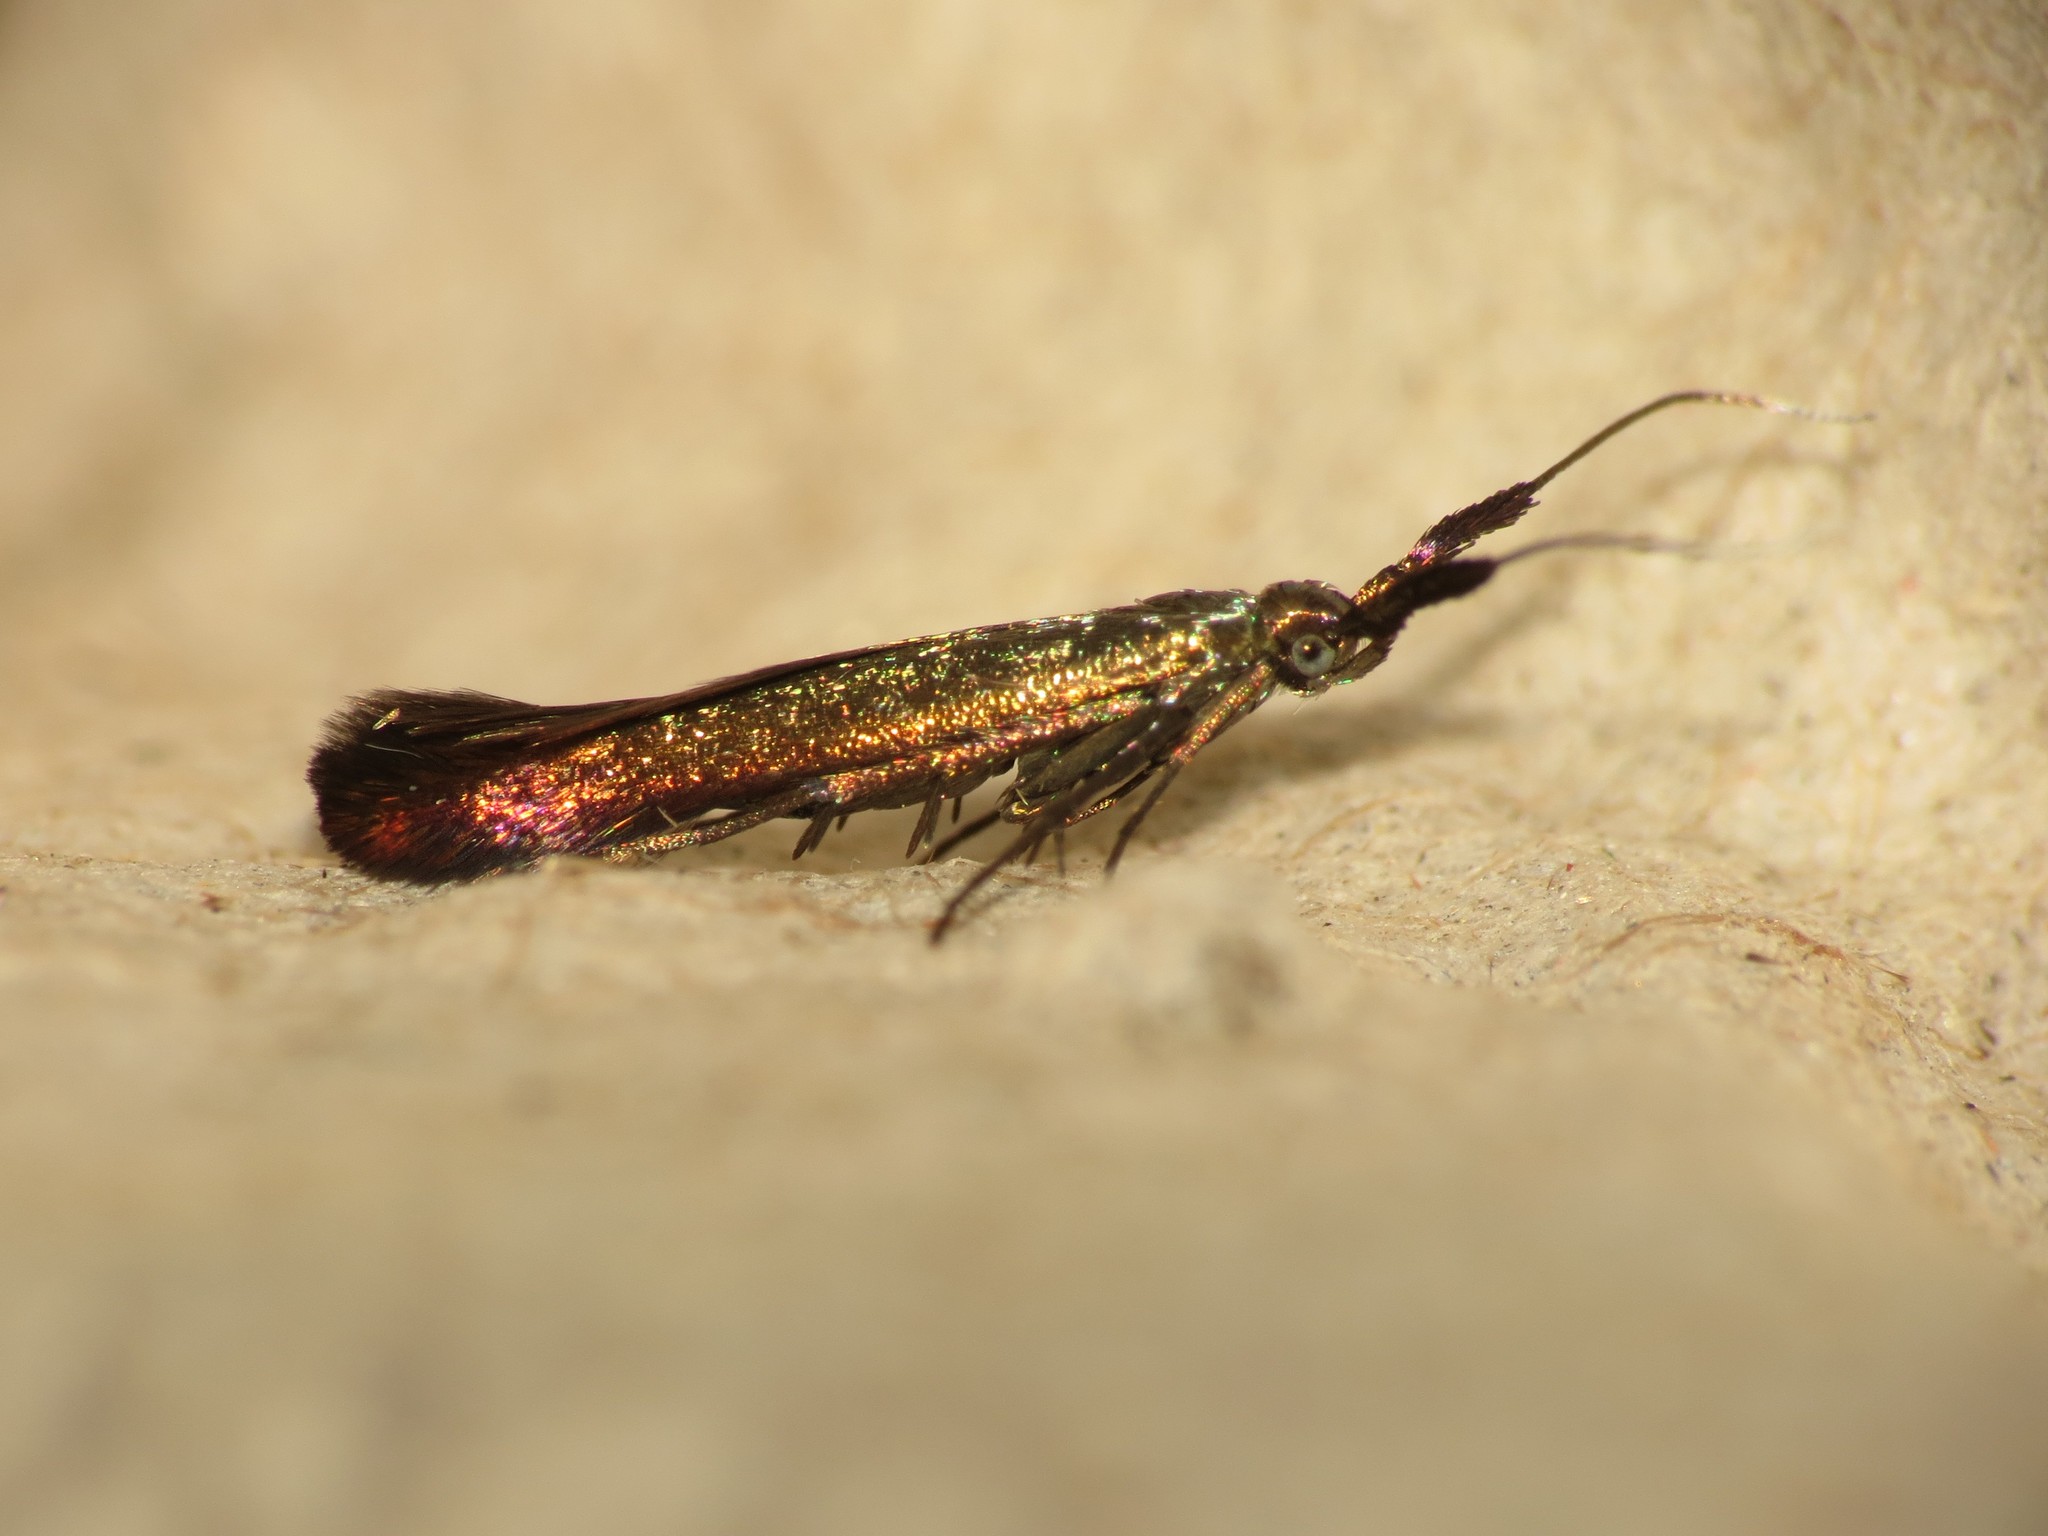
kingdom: Animalia
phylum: Arthropoda
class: Insecta
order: Lepidoptera
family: Coleophoridae
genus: Coleophora
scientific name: Coleophora deauratella
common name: Red-clover case-bearer
